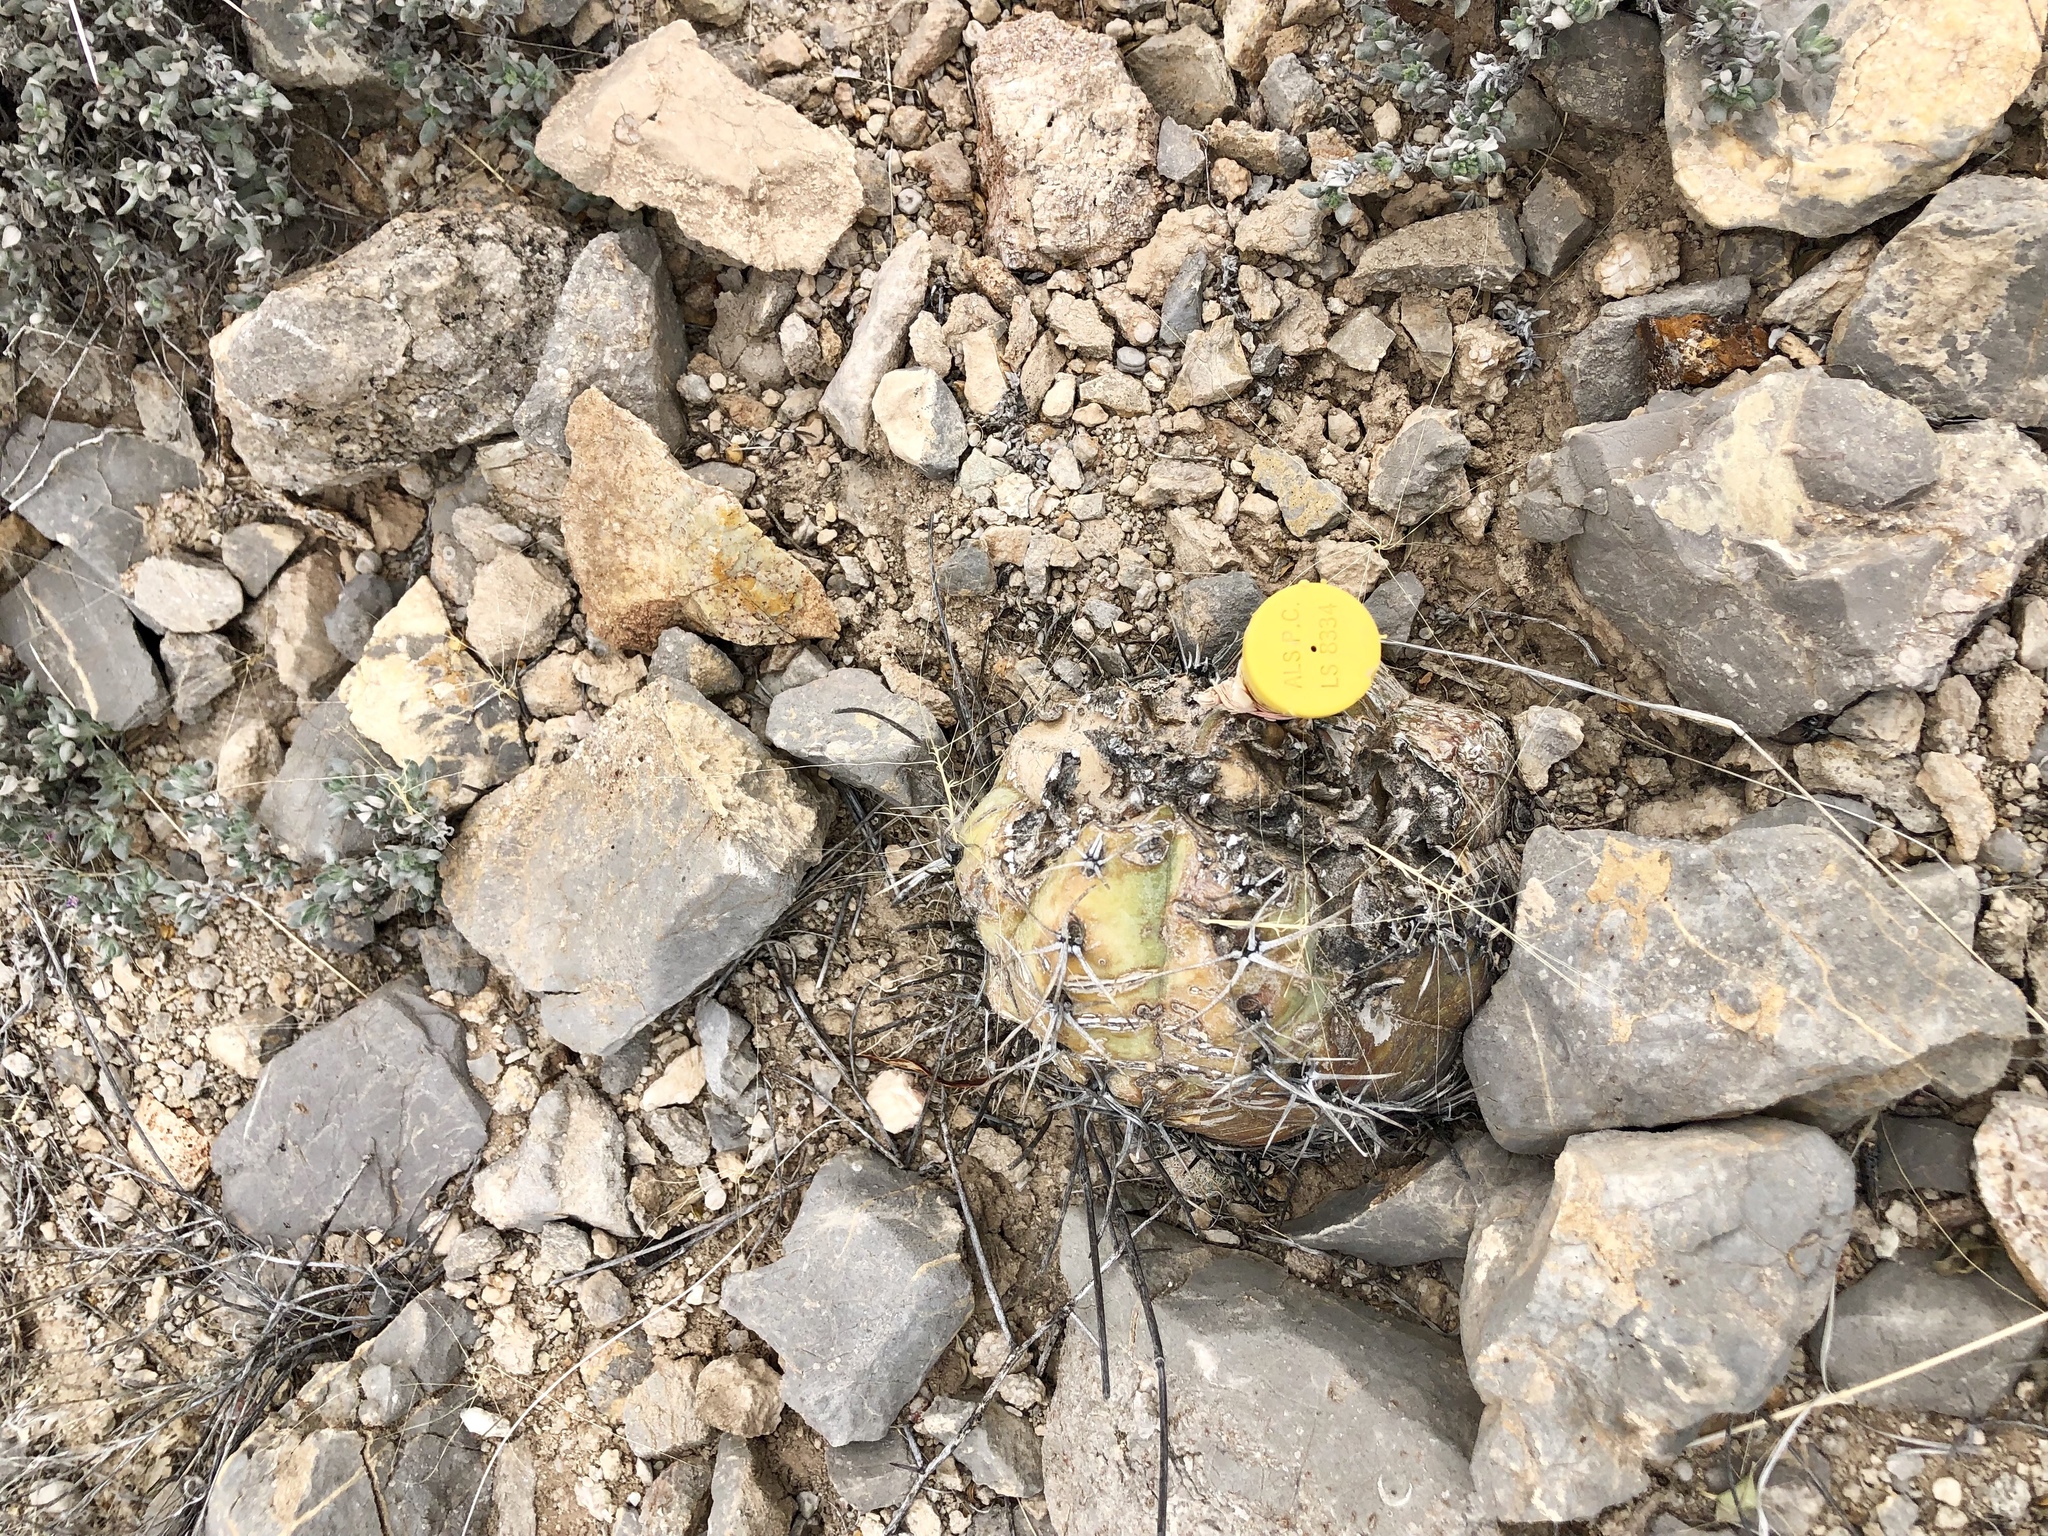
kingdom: Plantae
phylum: Tracheophyta
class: Magnoliopsida
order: Caryophyllales
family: Cactaceae
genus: Echinocactus
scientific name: Echinocactus horizonthalonius
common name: Devilshead
